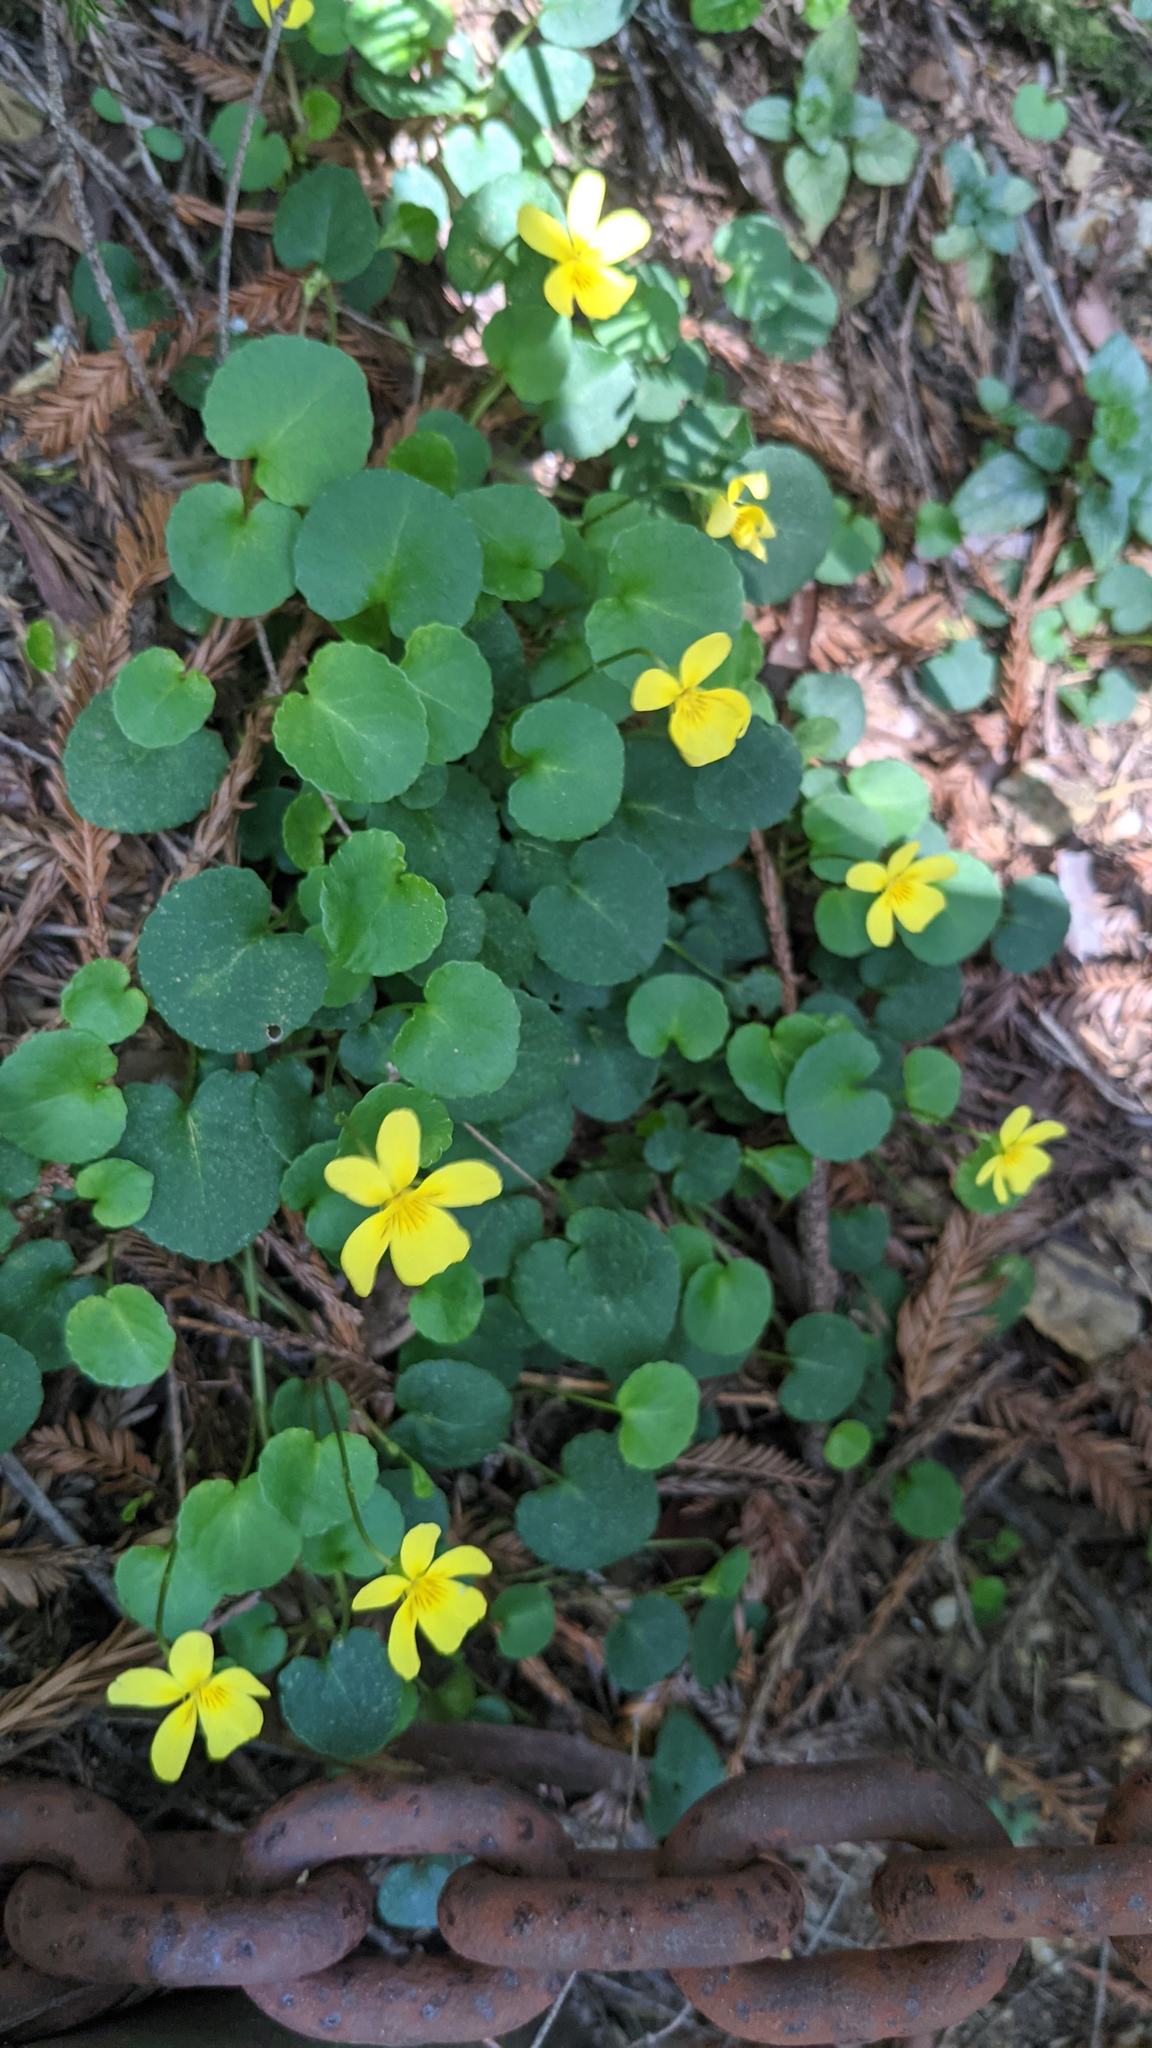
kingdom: Plantae
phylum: Tracheophyta
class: Magnoliopsida
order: Malpighiales
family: Violaceae
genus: Viola
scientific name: Viola sempervirens
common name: Evergreen violet
